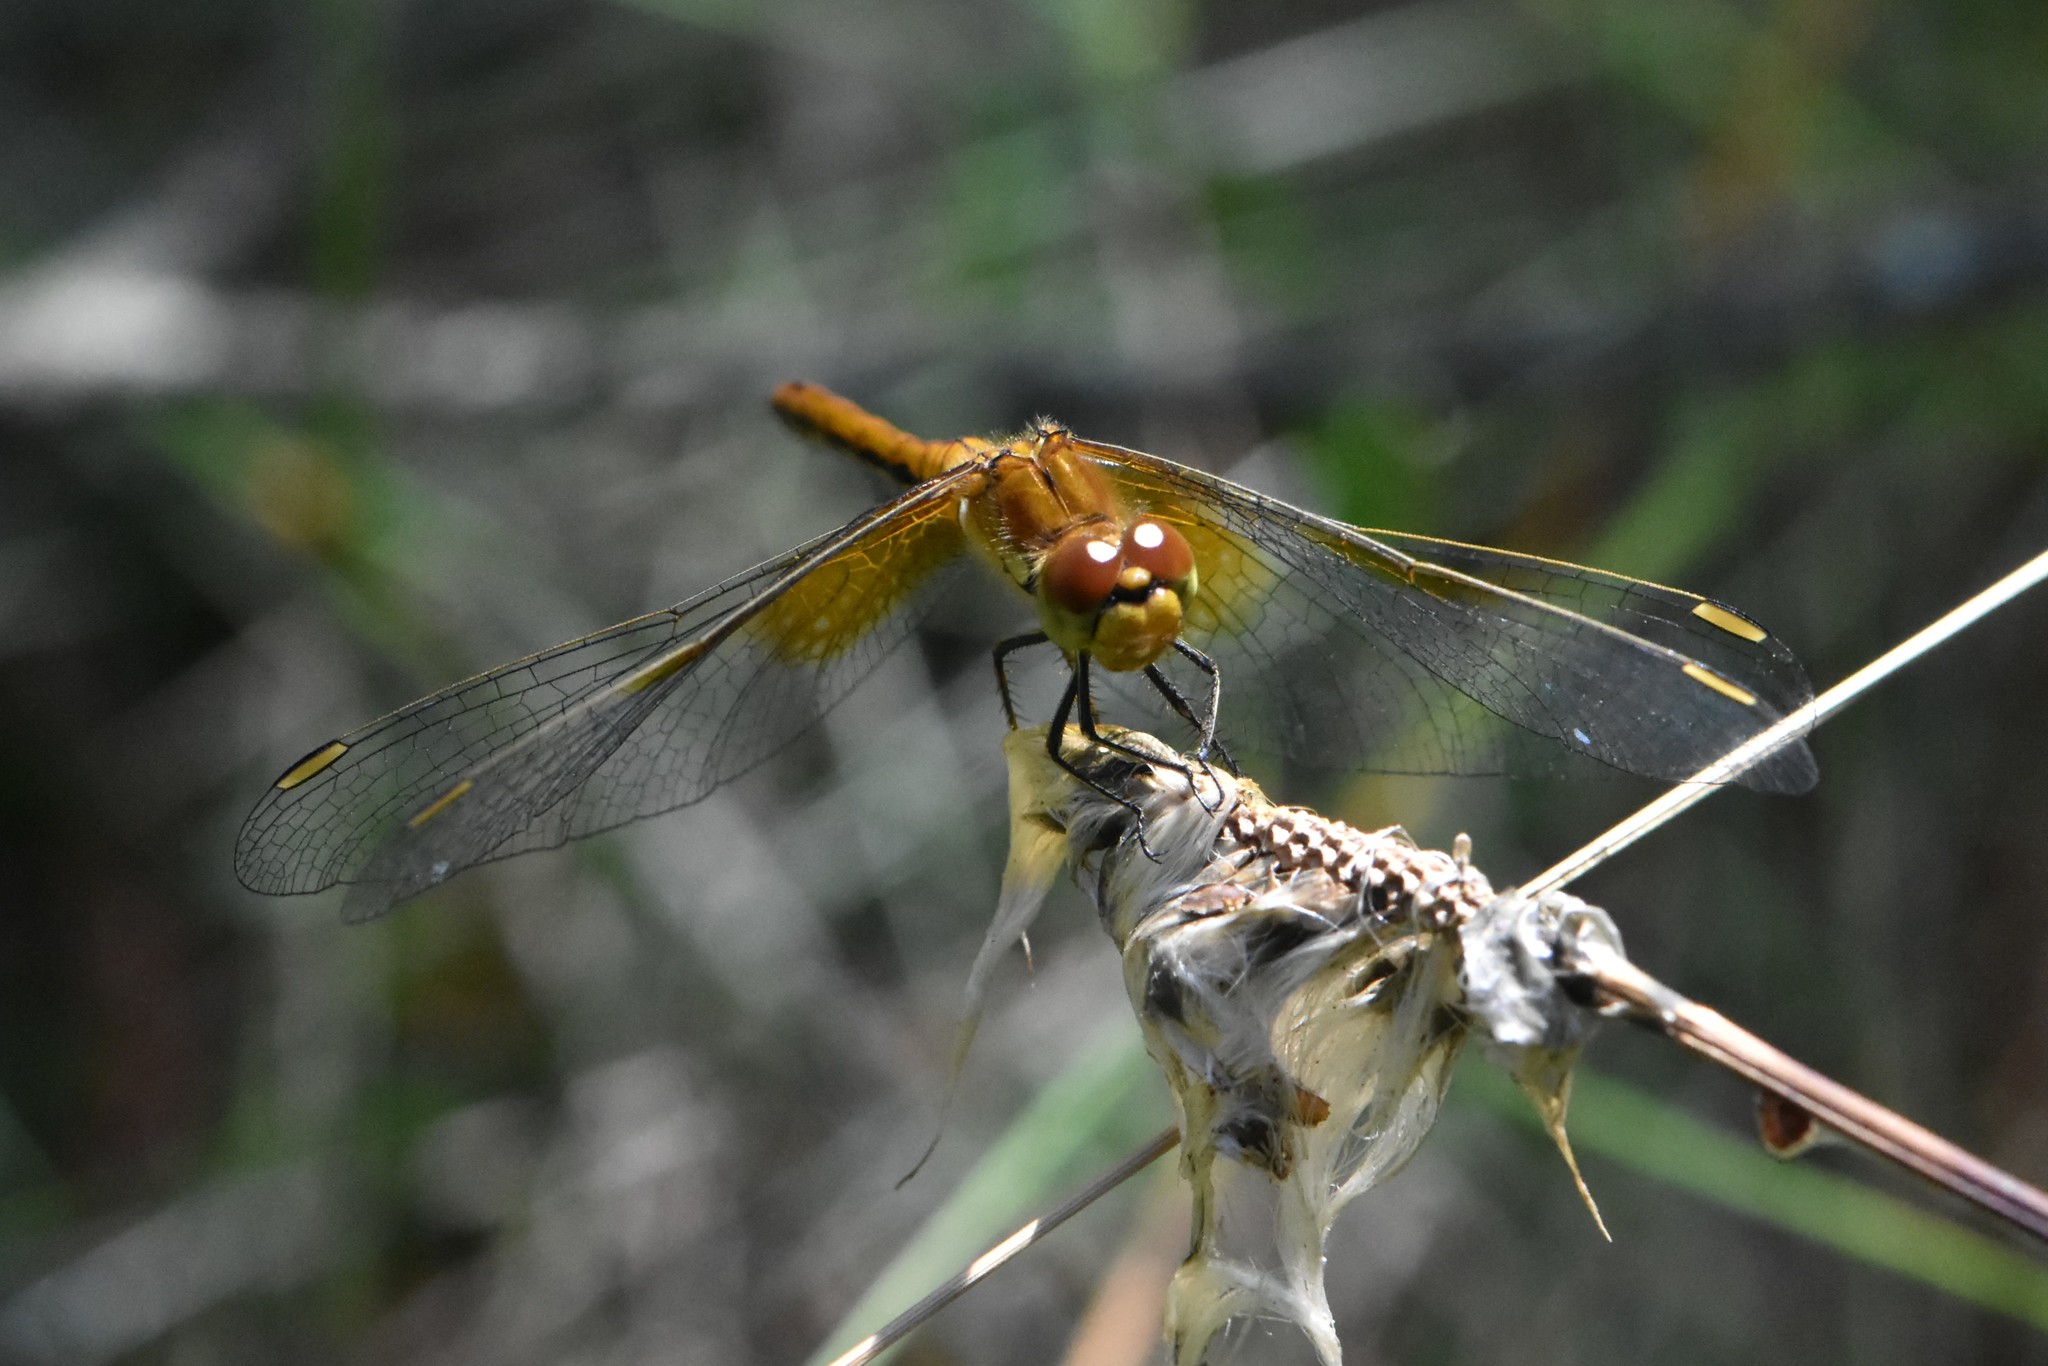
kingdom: Animalia
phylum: Arthropoda
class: Insecta
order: Odonata
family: Libellulidae
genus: Sympetrum
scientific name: Sympetrum flaveolum
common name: Yellow-winged darter
